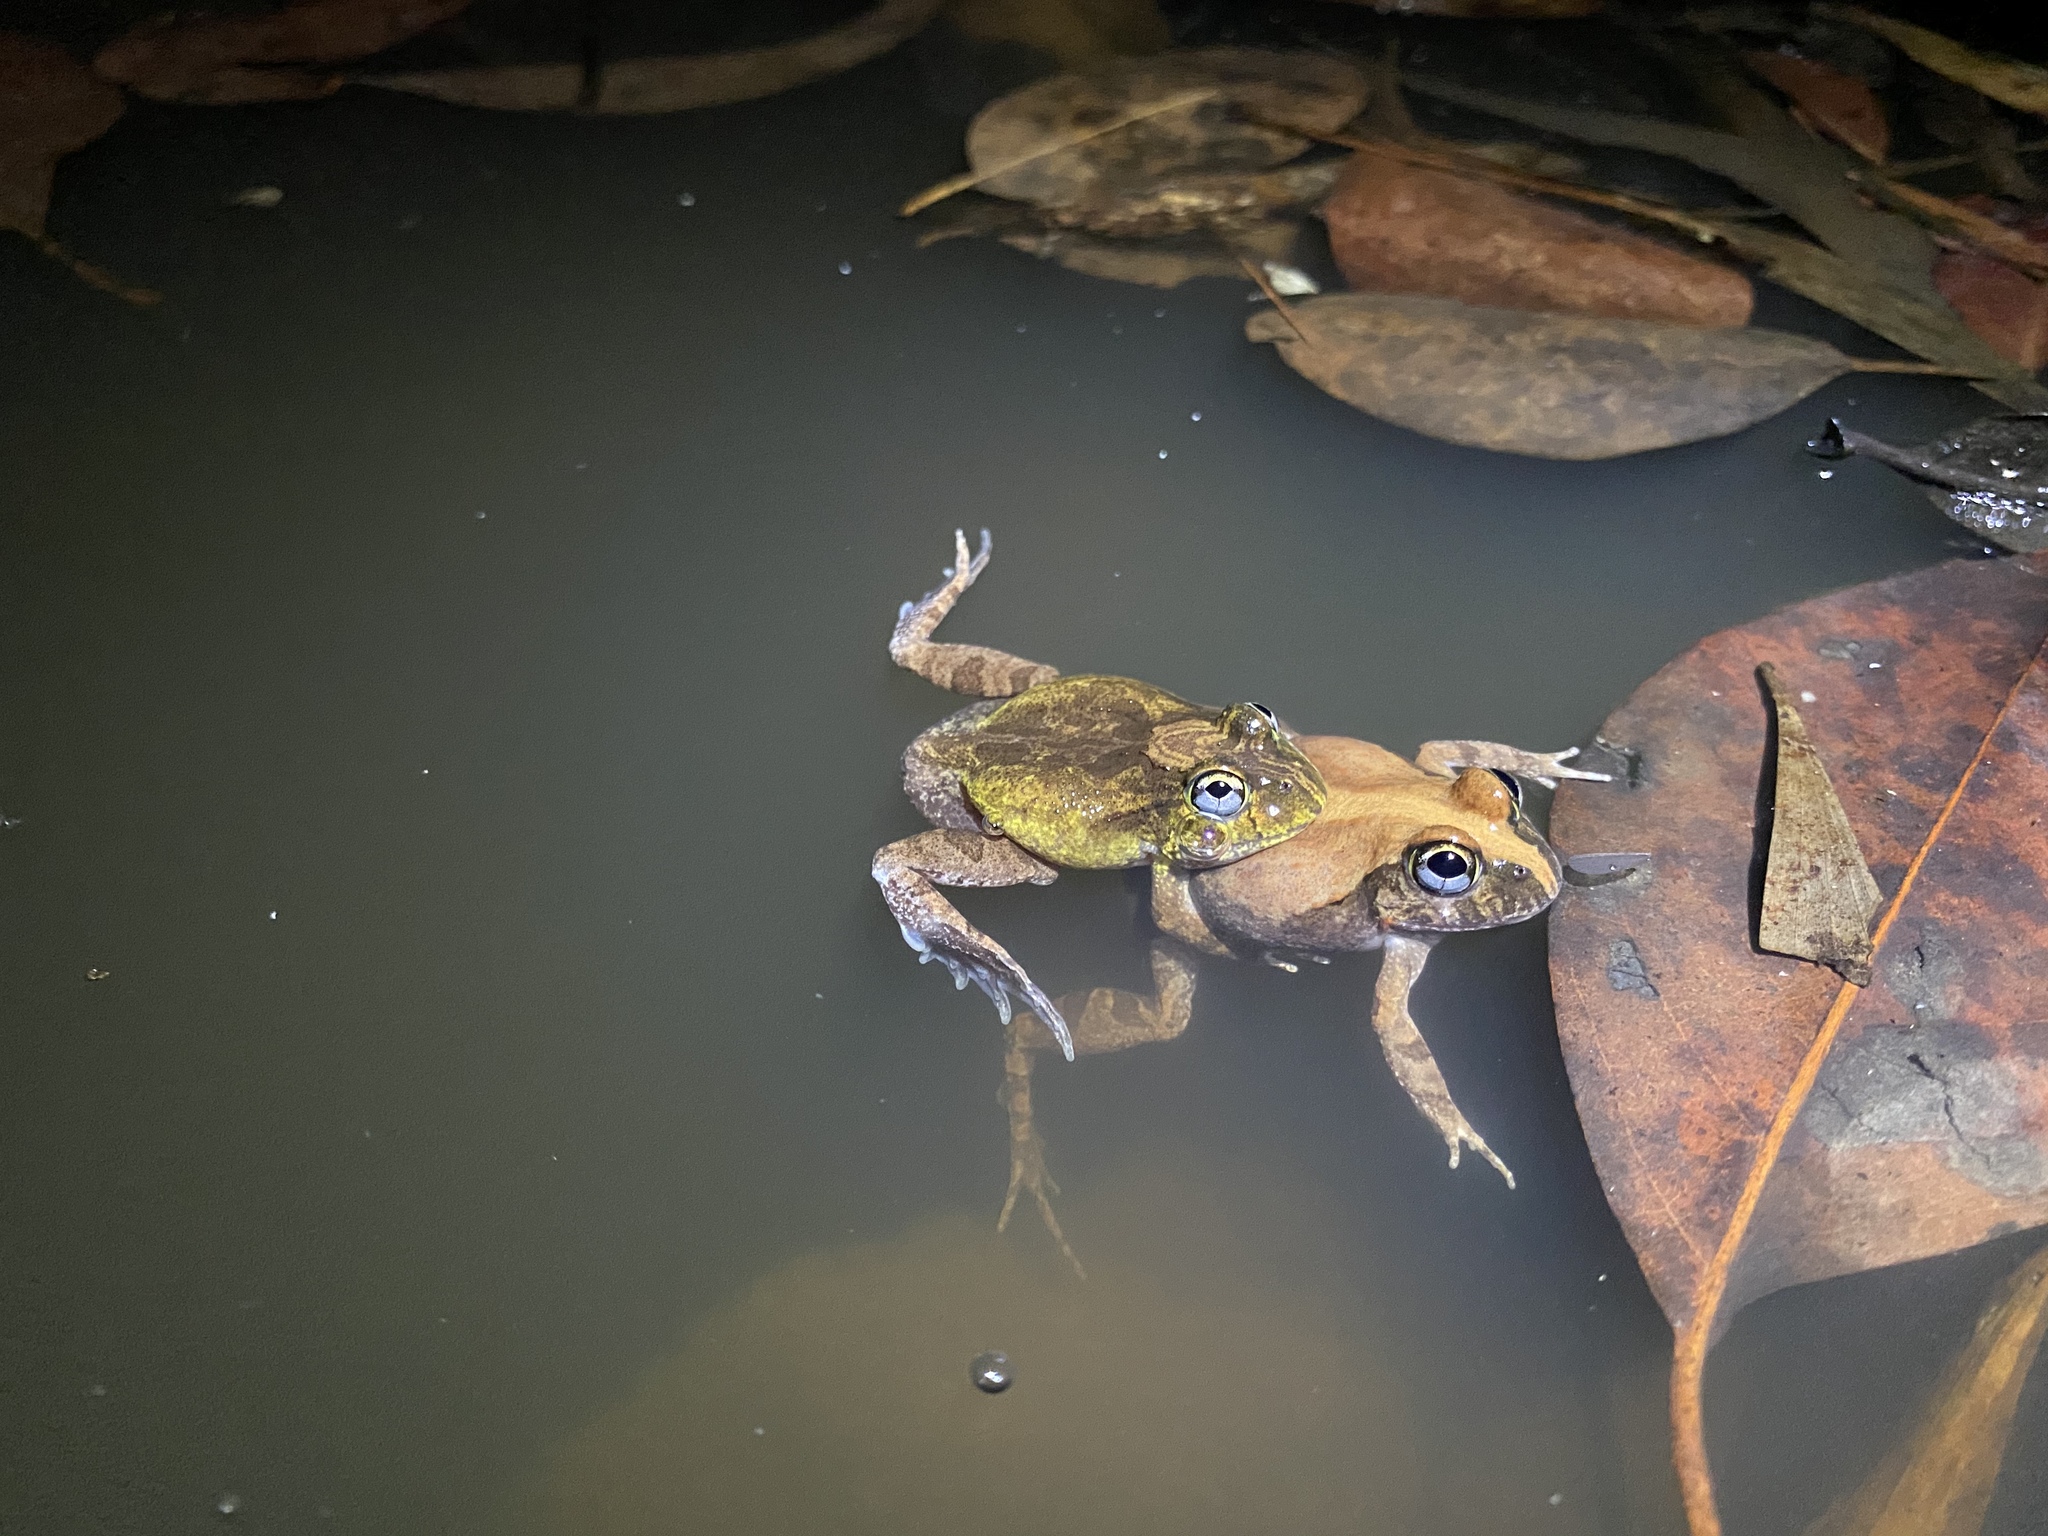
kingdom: Animalia
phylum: Chordata
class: Amphibia
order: Anura
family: Limnodynastidae
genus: Platyplectrum
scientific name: Platyplectrum ornatum
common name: Ornate burrowing frog
